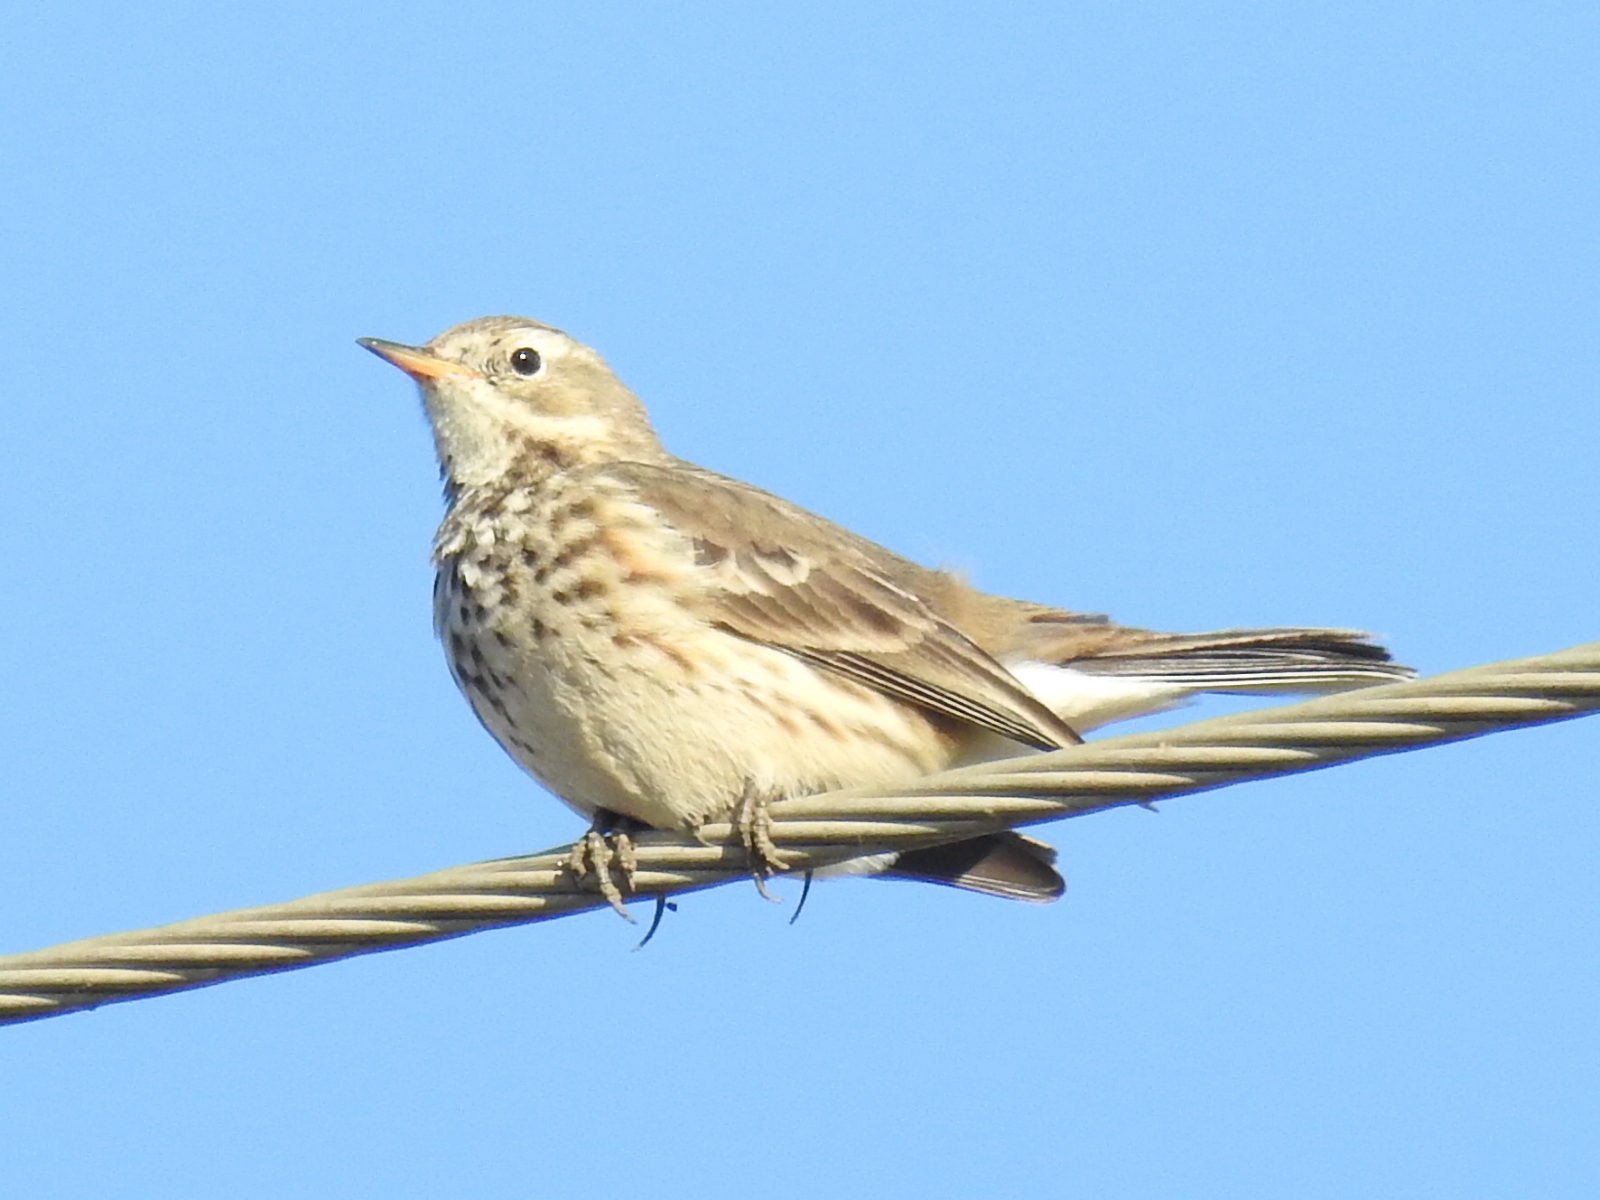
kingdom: Animalia
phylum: Chordata
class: Aves
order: Passeriformes
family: Motacillidae
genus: Anthus
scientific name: Anthus rubescens
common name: Buff-bellied pipit
